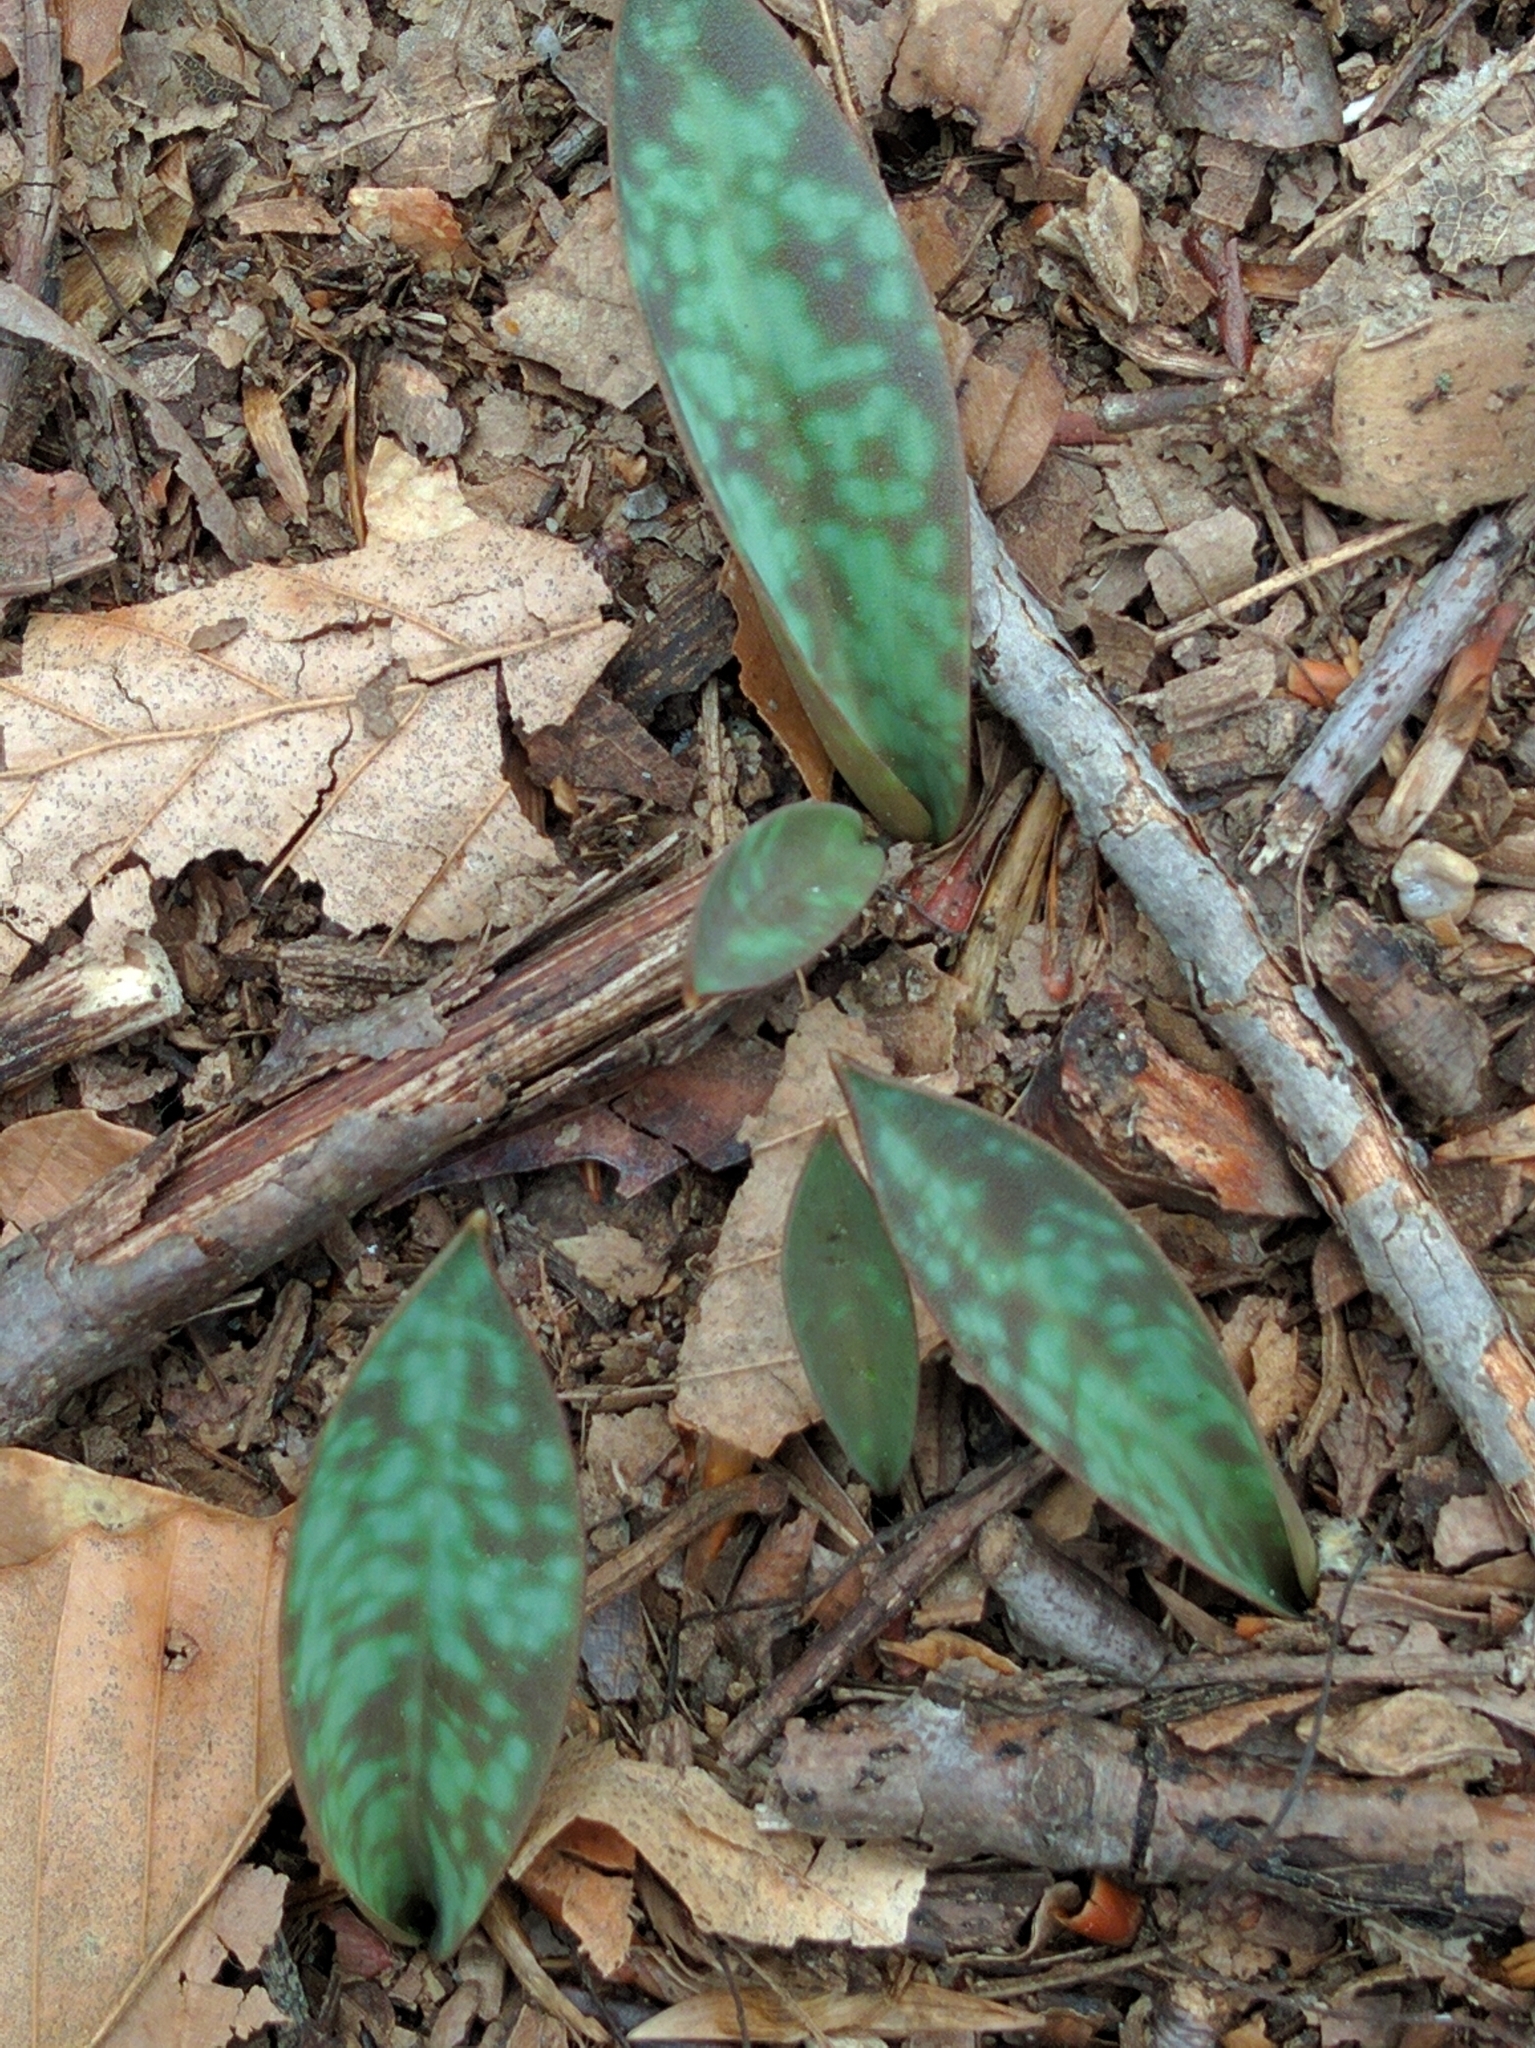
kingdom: Plantae
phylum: Tracheophyta
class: Liliopsida
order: Liliales
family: Liliaceae
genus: Erythronium
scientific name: Erythronium americanum
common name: Yellow adder's-tongue
